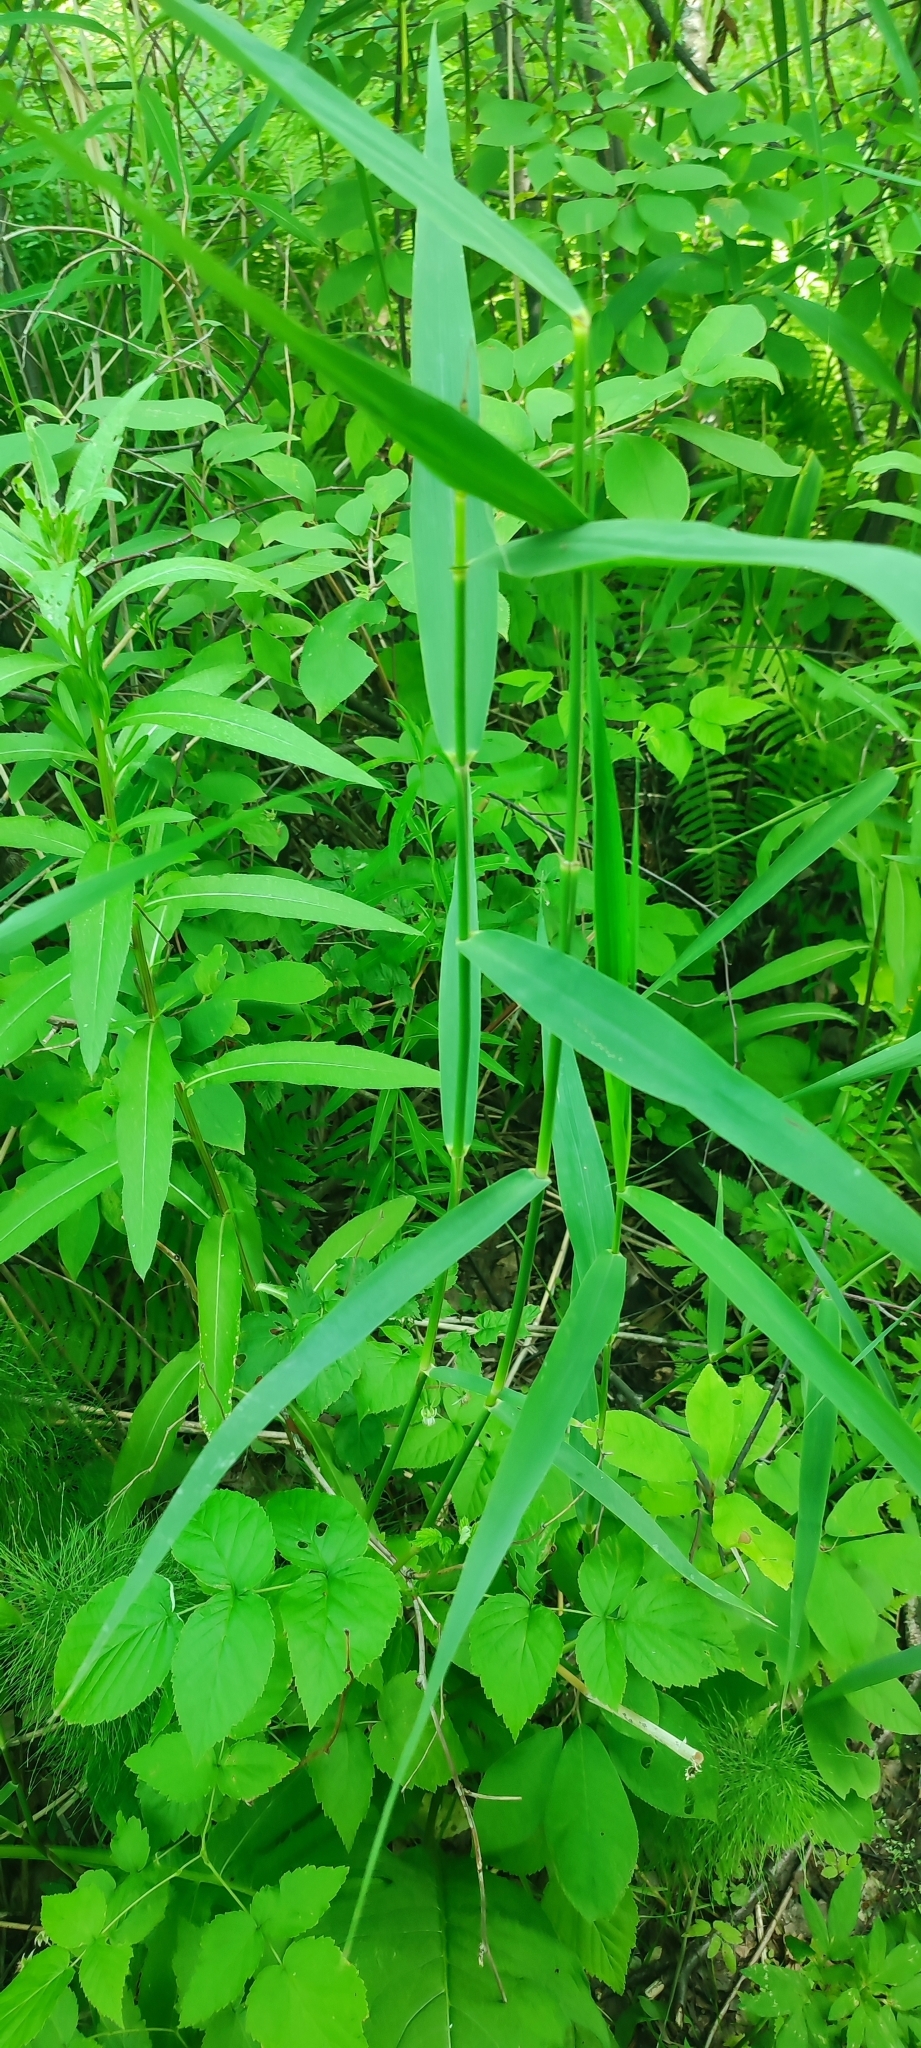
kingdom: Plantae
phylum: Tracheophyta
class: Liliopsida
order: Poales
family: Poaceae
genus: Phragmites
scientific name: Phragmites australis
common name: Common reed
